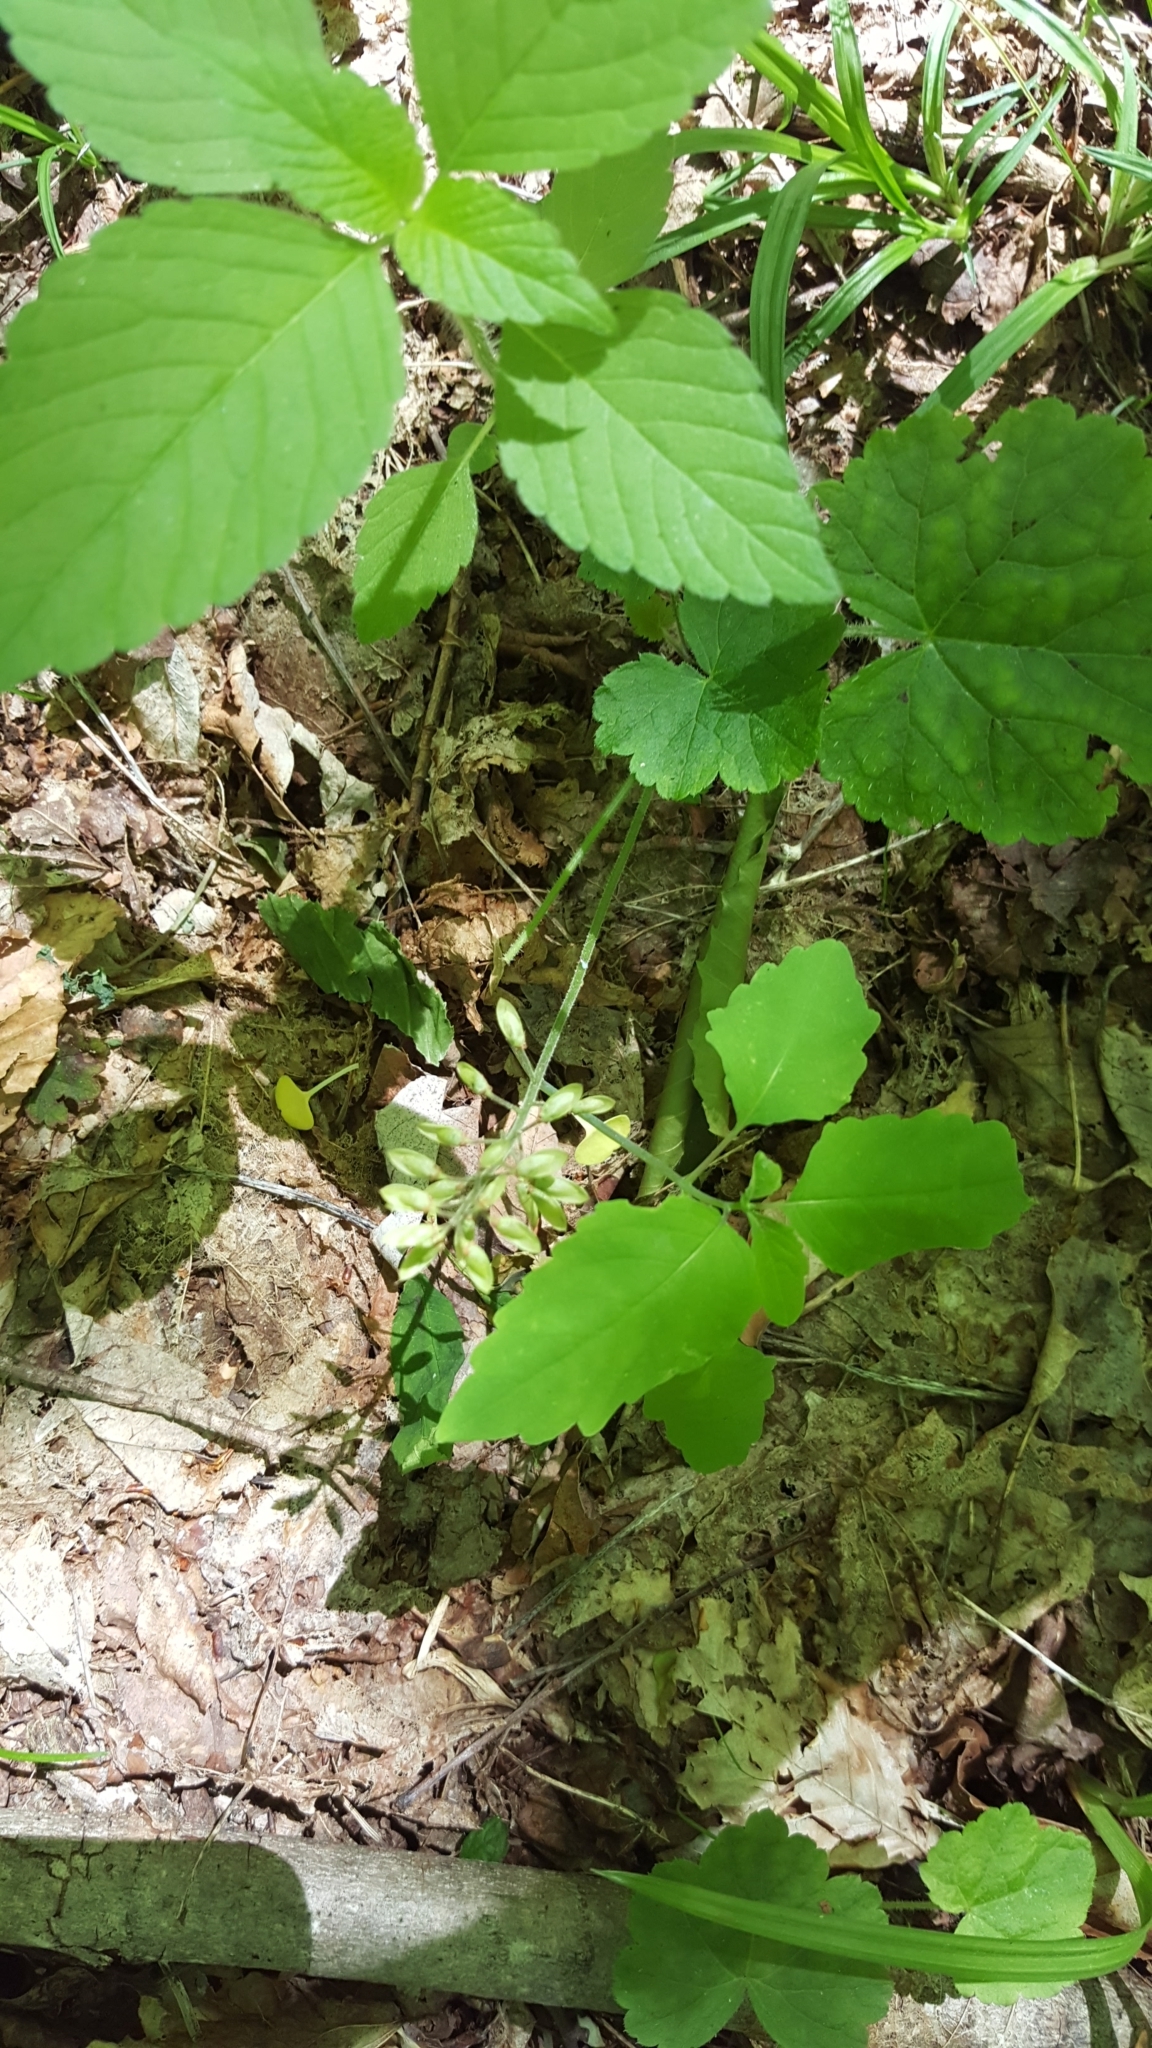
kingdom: Plantae
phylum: Tracheophyta
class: Magnoliopsida
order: Saxifragales
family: Saxifragaceae
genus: Tiarella
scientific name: Tiarella stolonifera
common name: Stoloniferous foamflower
